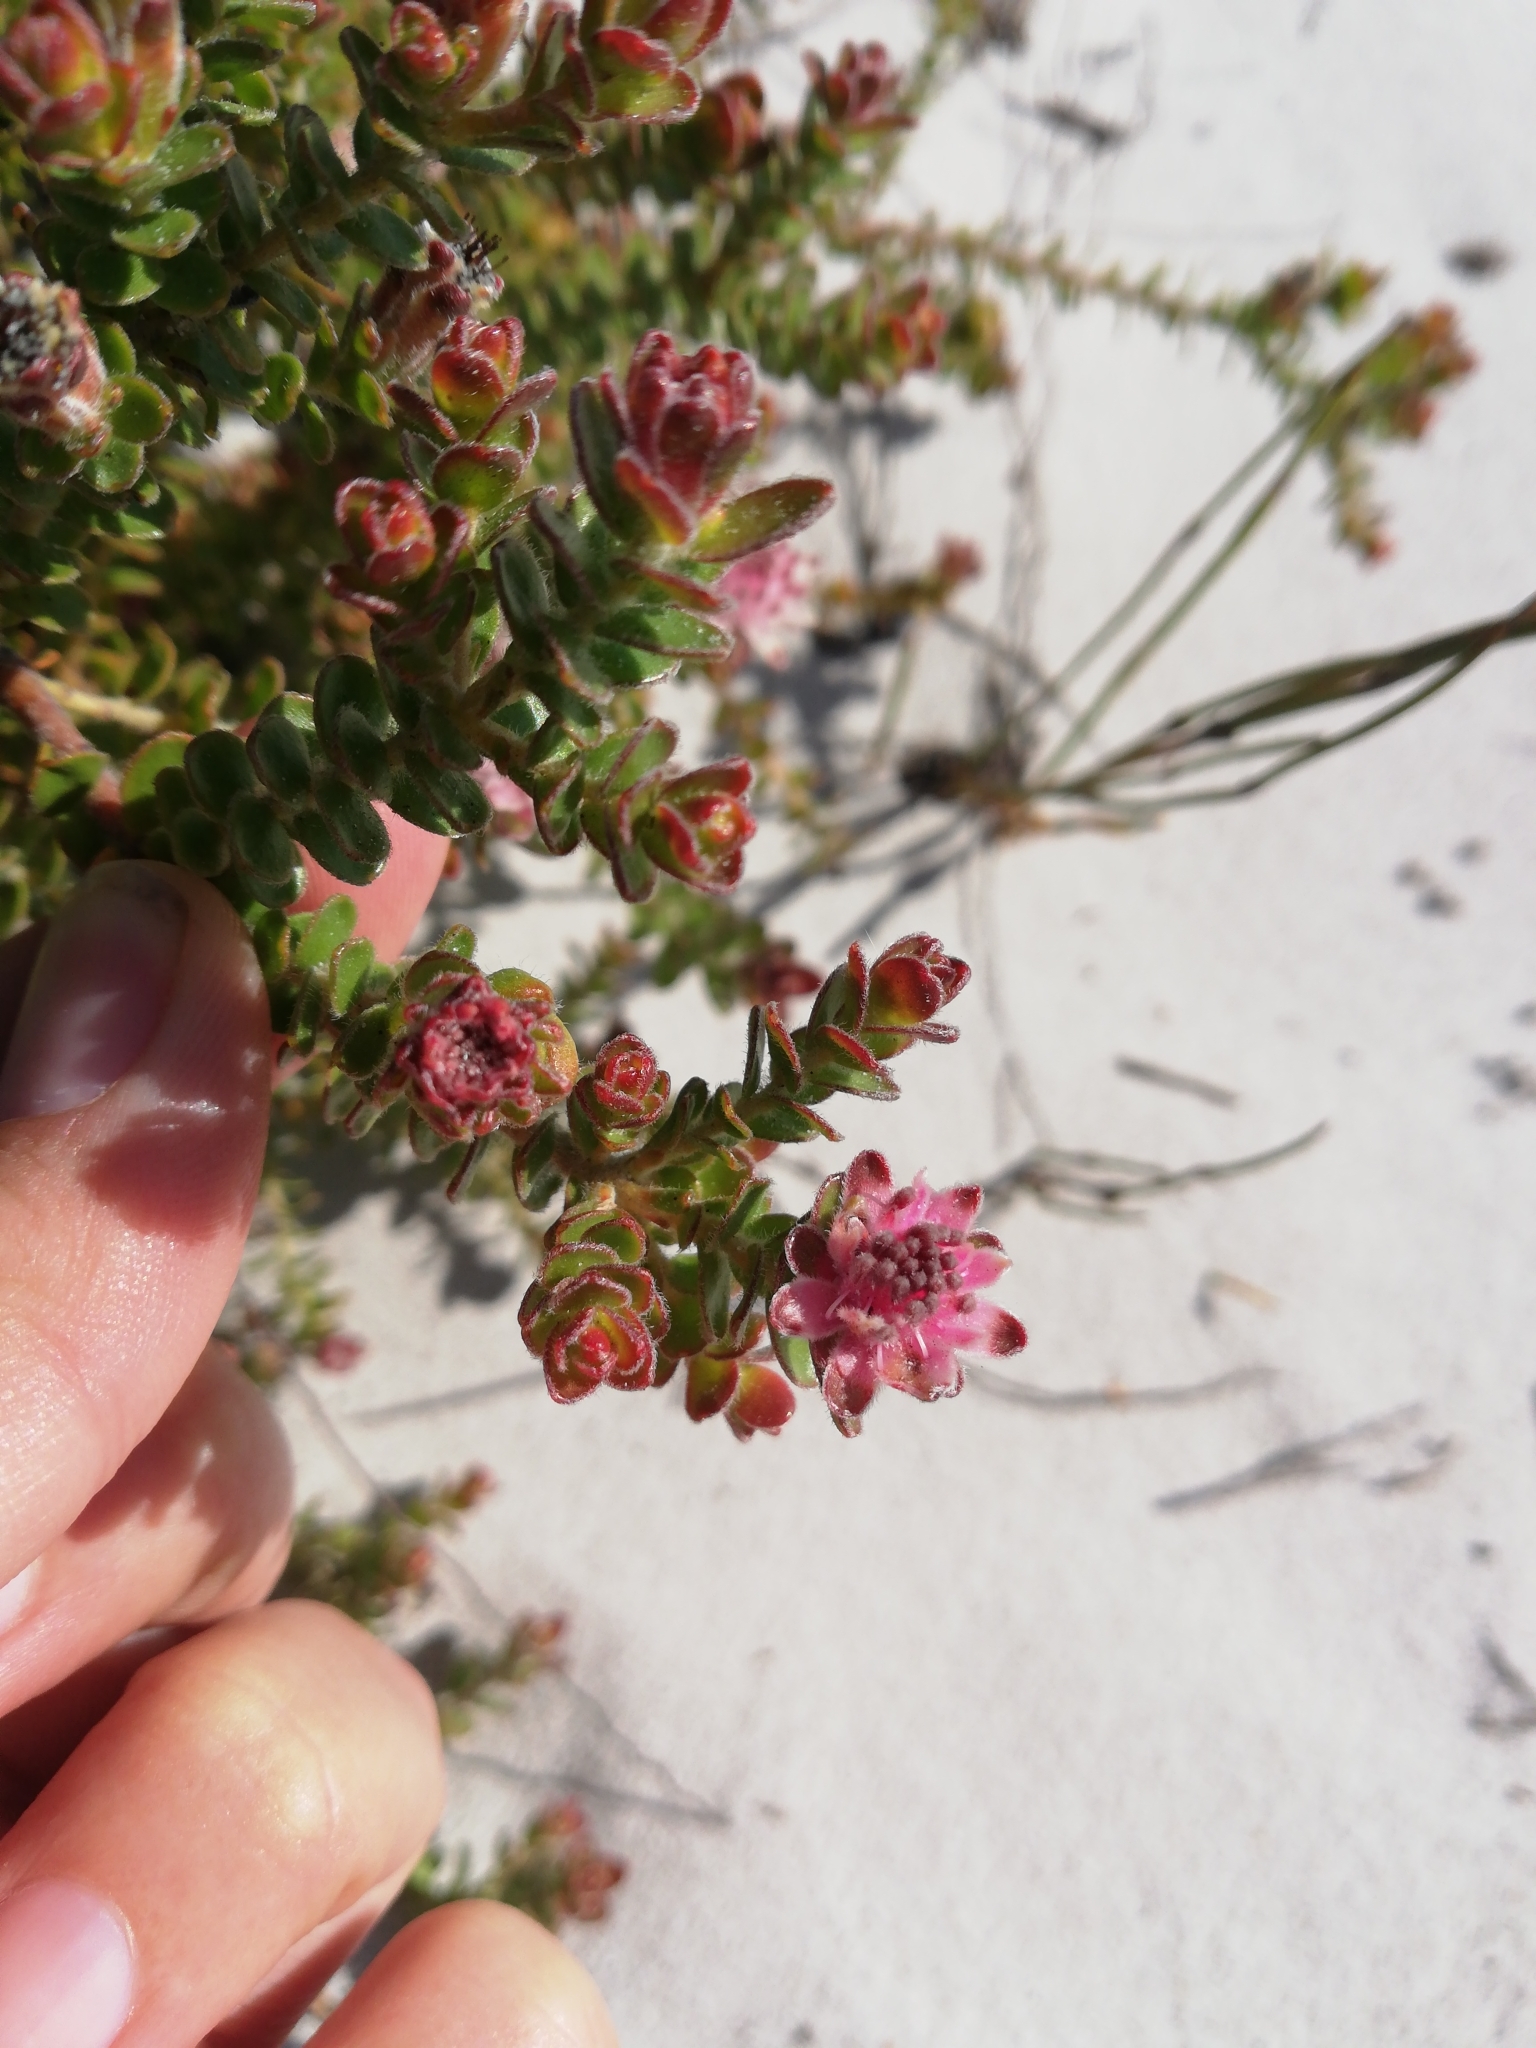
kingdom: Plantae
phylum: Tracheophyta
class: Magnoliopsida
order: Proteales
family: Proteaceae
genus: Diastella
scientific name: Diastella divaricata
